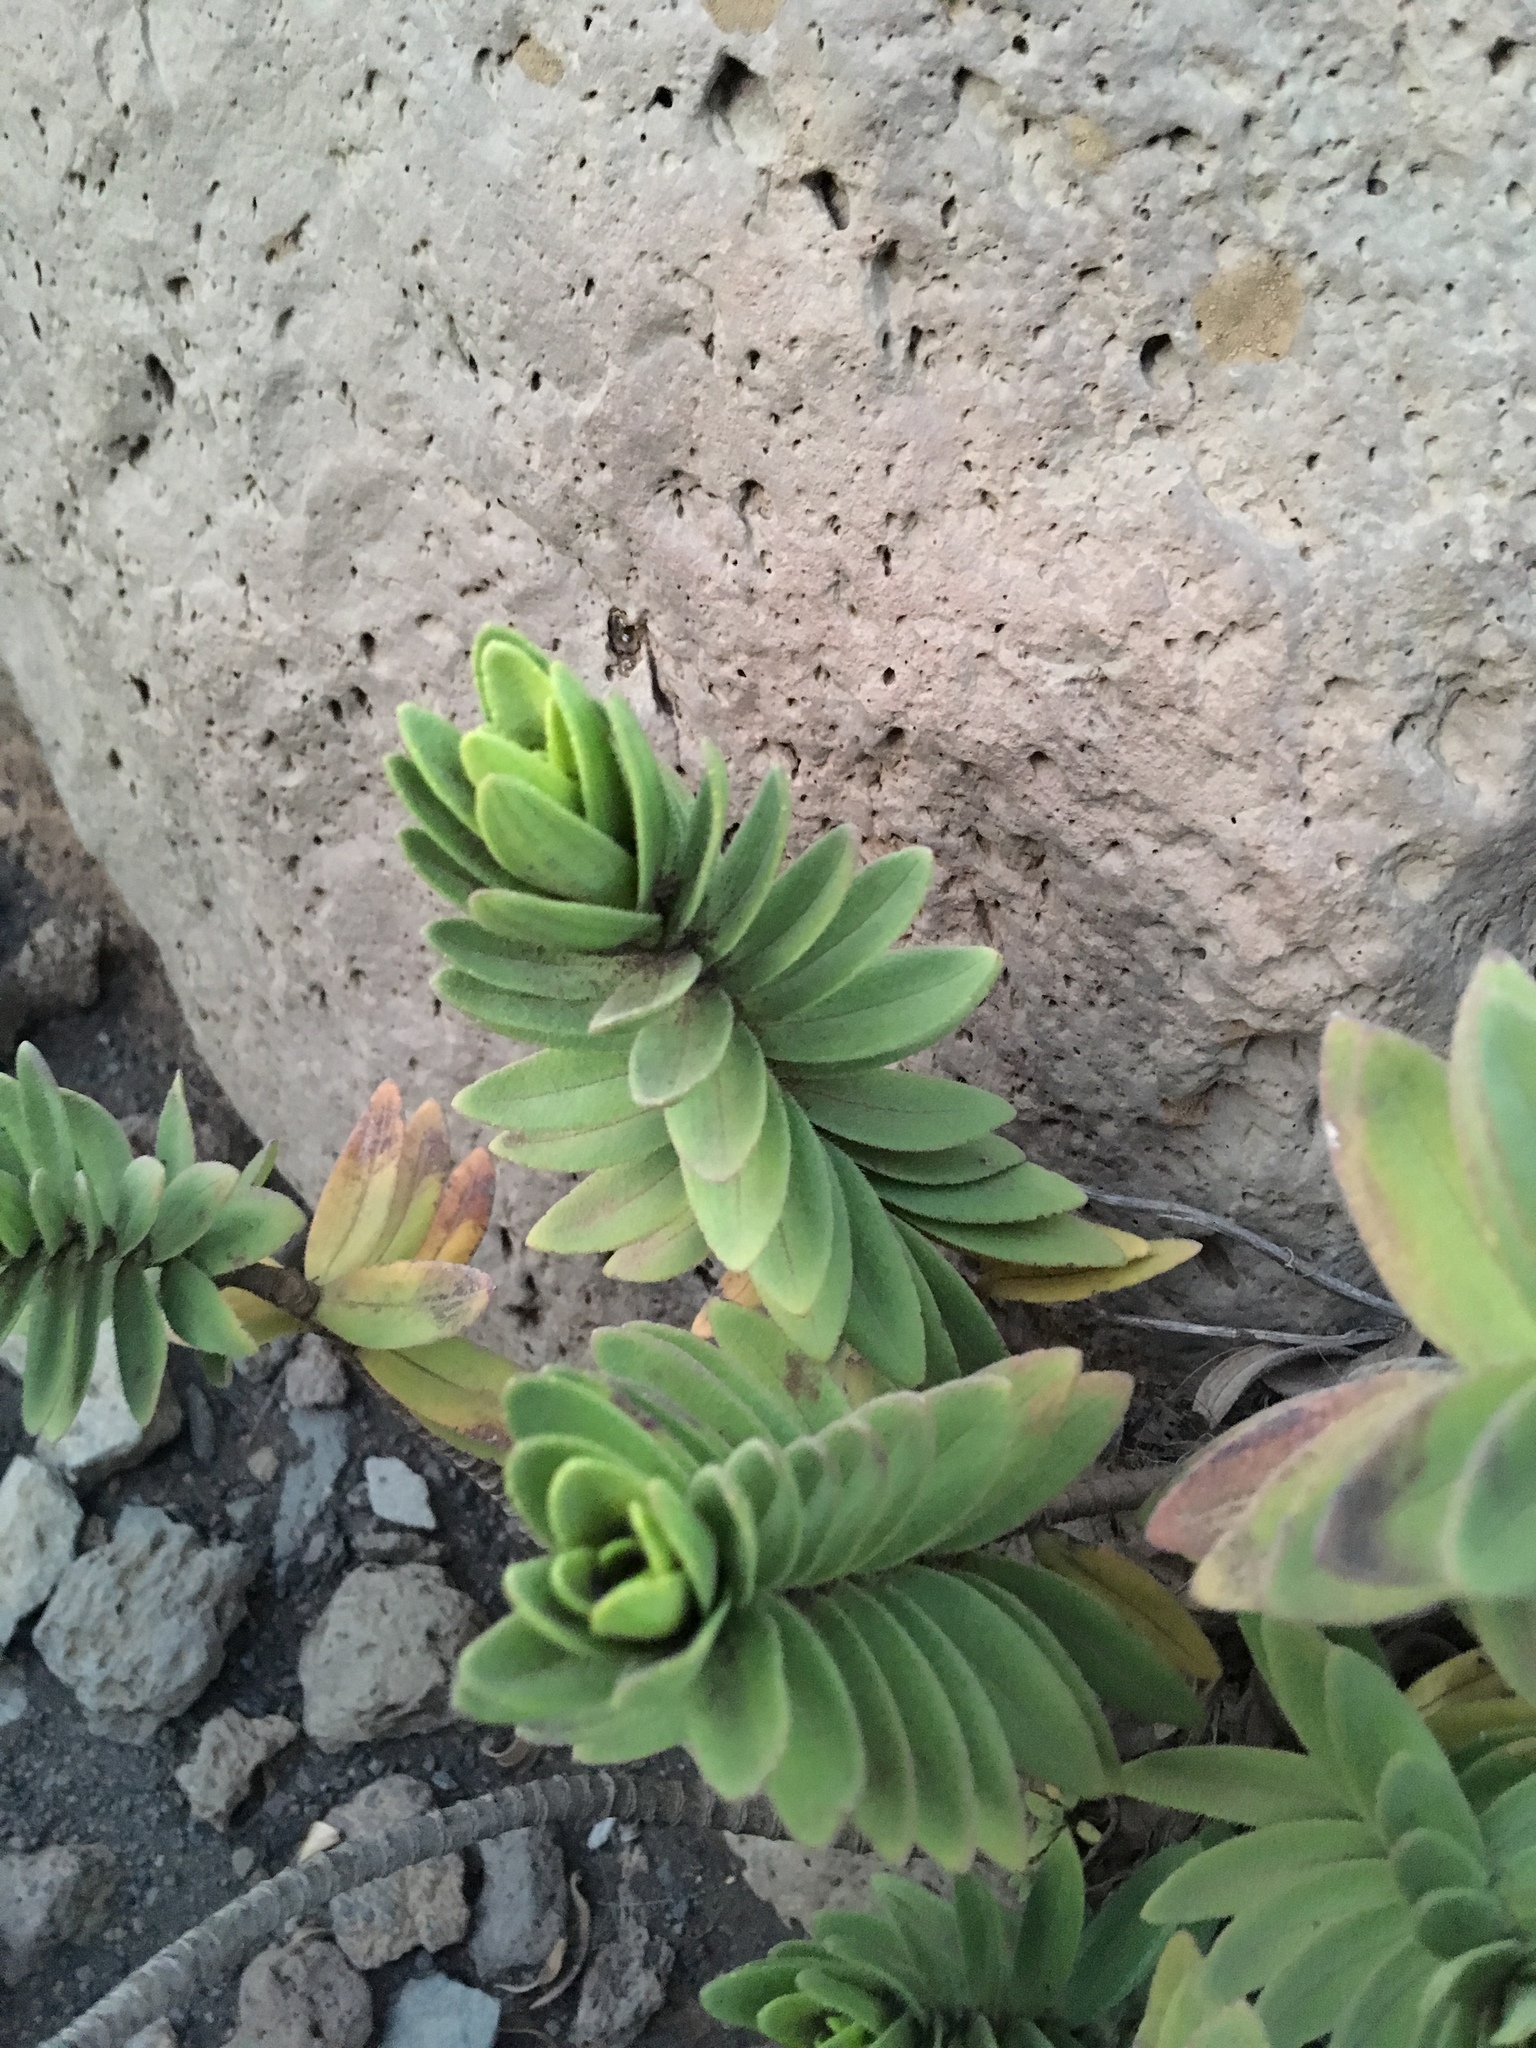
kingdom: Plantae
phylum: Tracheophyta
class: Magnoliopsida
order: Asterales
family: Asteraceae
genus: Dubautia
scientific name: Dubautia menziesii
